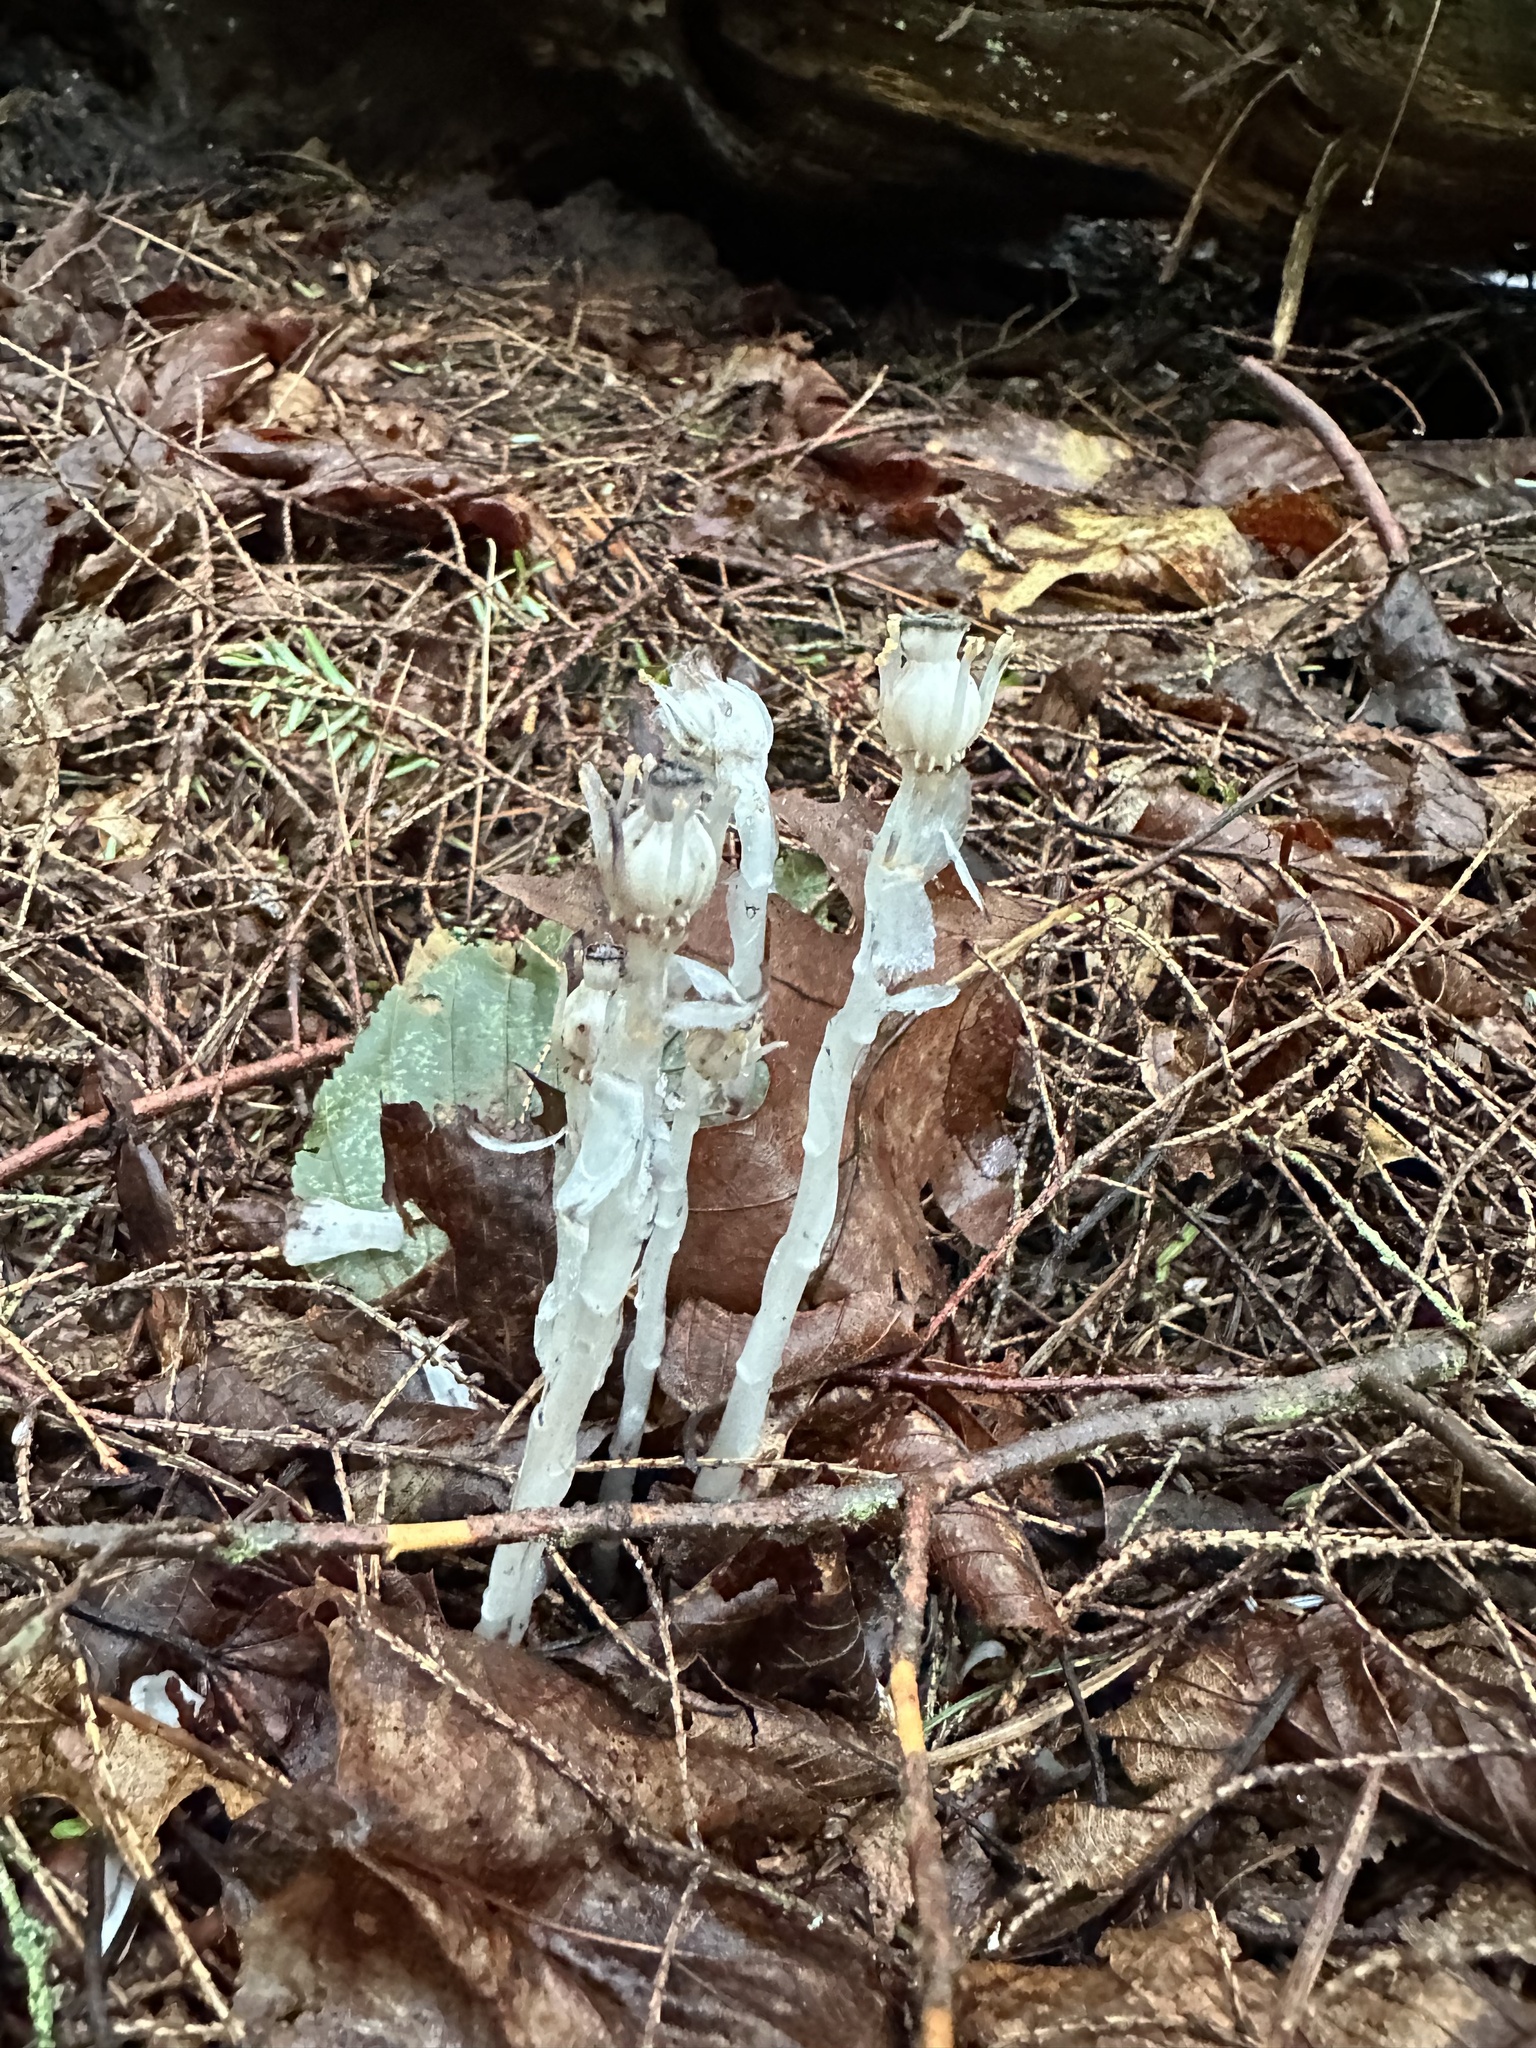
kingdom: Plantae
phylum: Tracheophyta
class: Magnoliopsida
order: Ericales
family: Ericaceae
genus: Monotropa
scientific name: Monotropa uniflora
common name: Convulsion root
